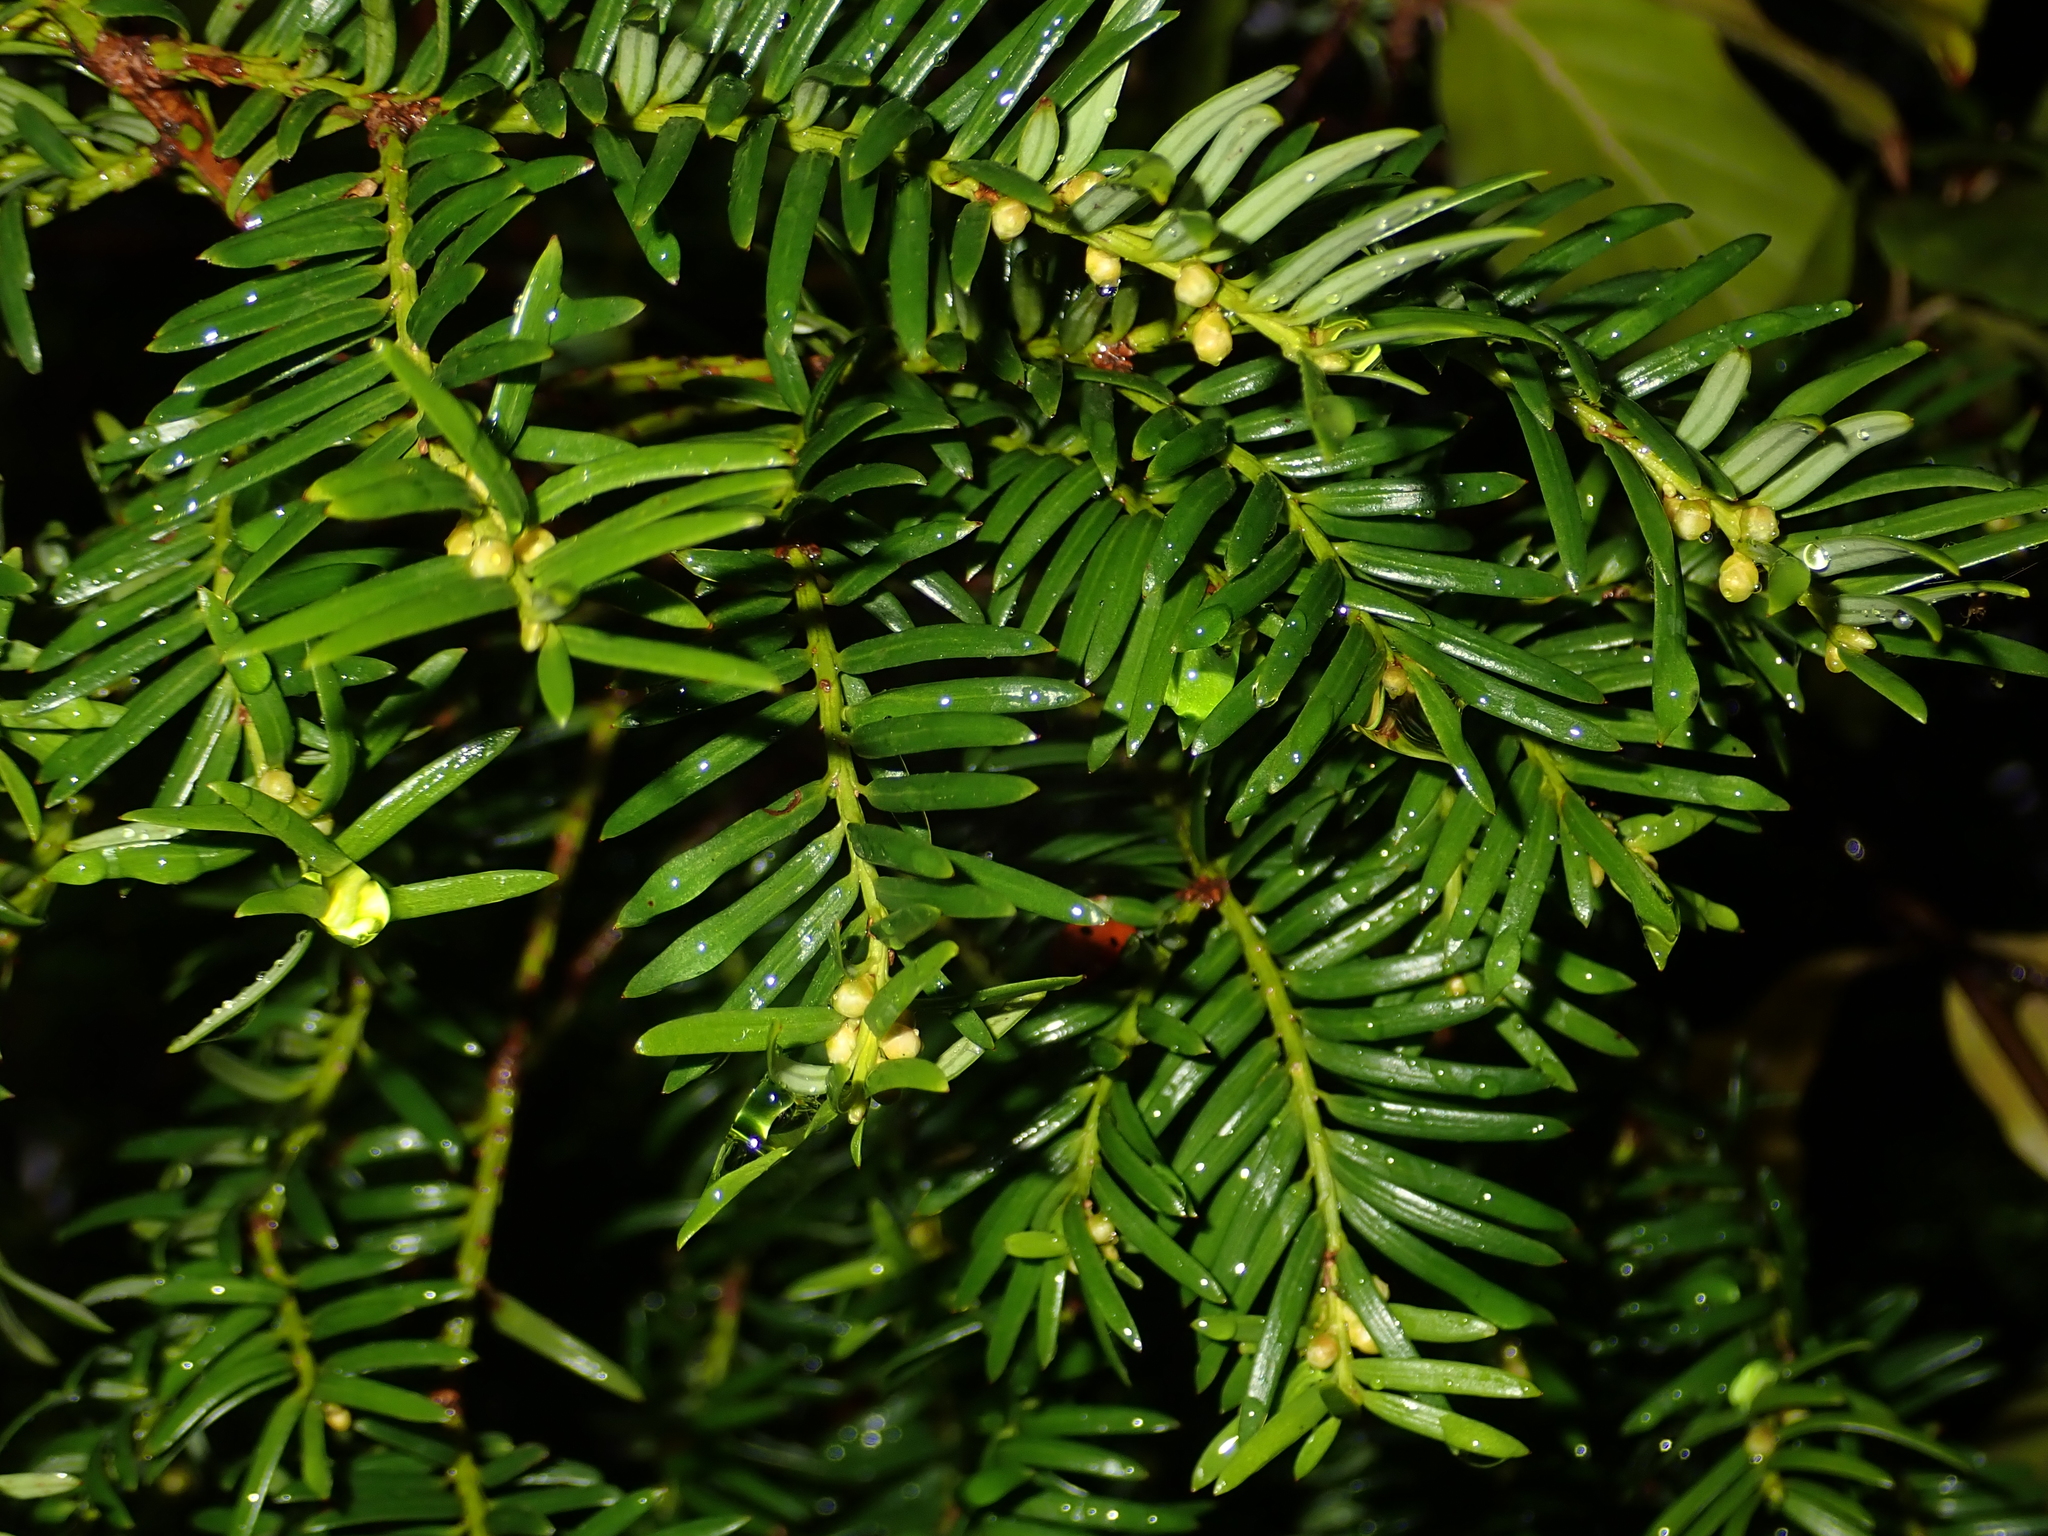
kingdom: Plantae
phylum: Tracheophyta
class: Pinopsida
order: Pinales
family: Taxaceae
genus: Taxus
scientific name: Taxus baccata
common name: Yew
